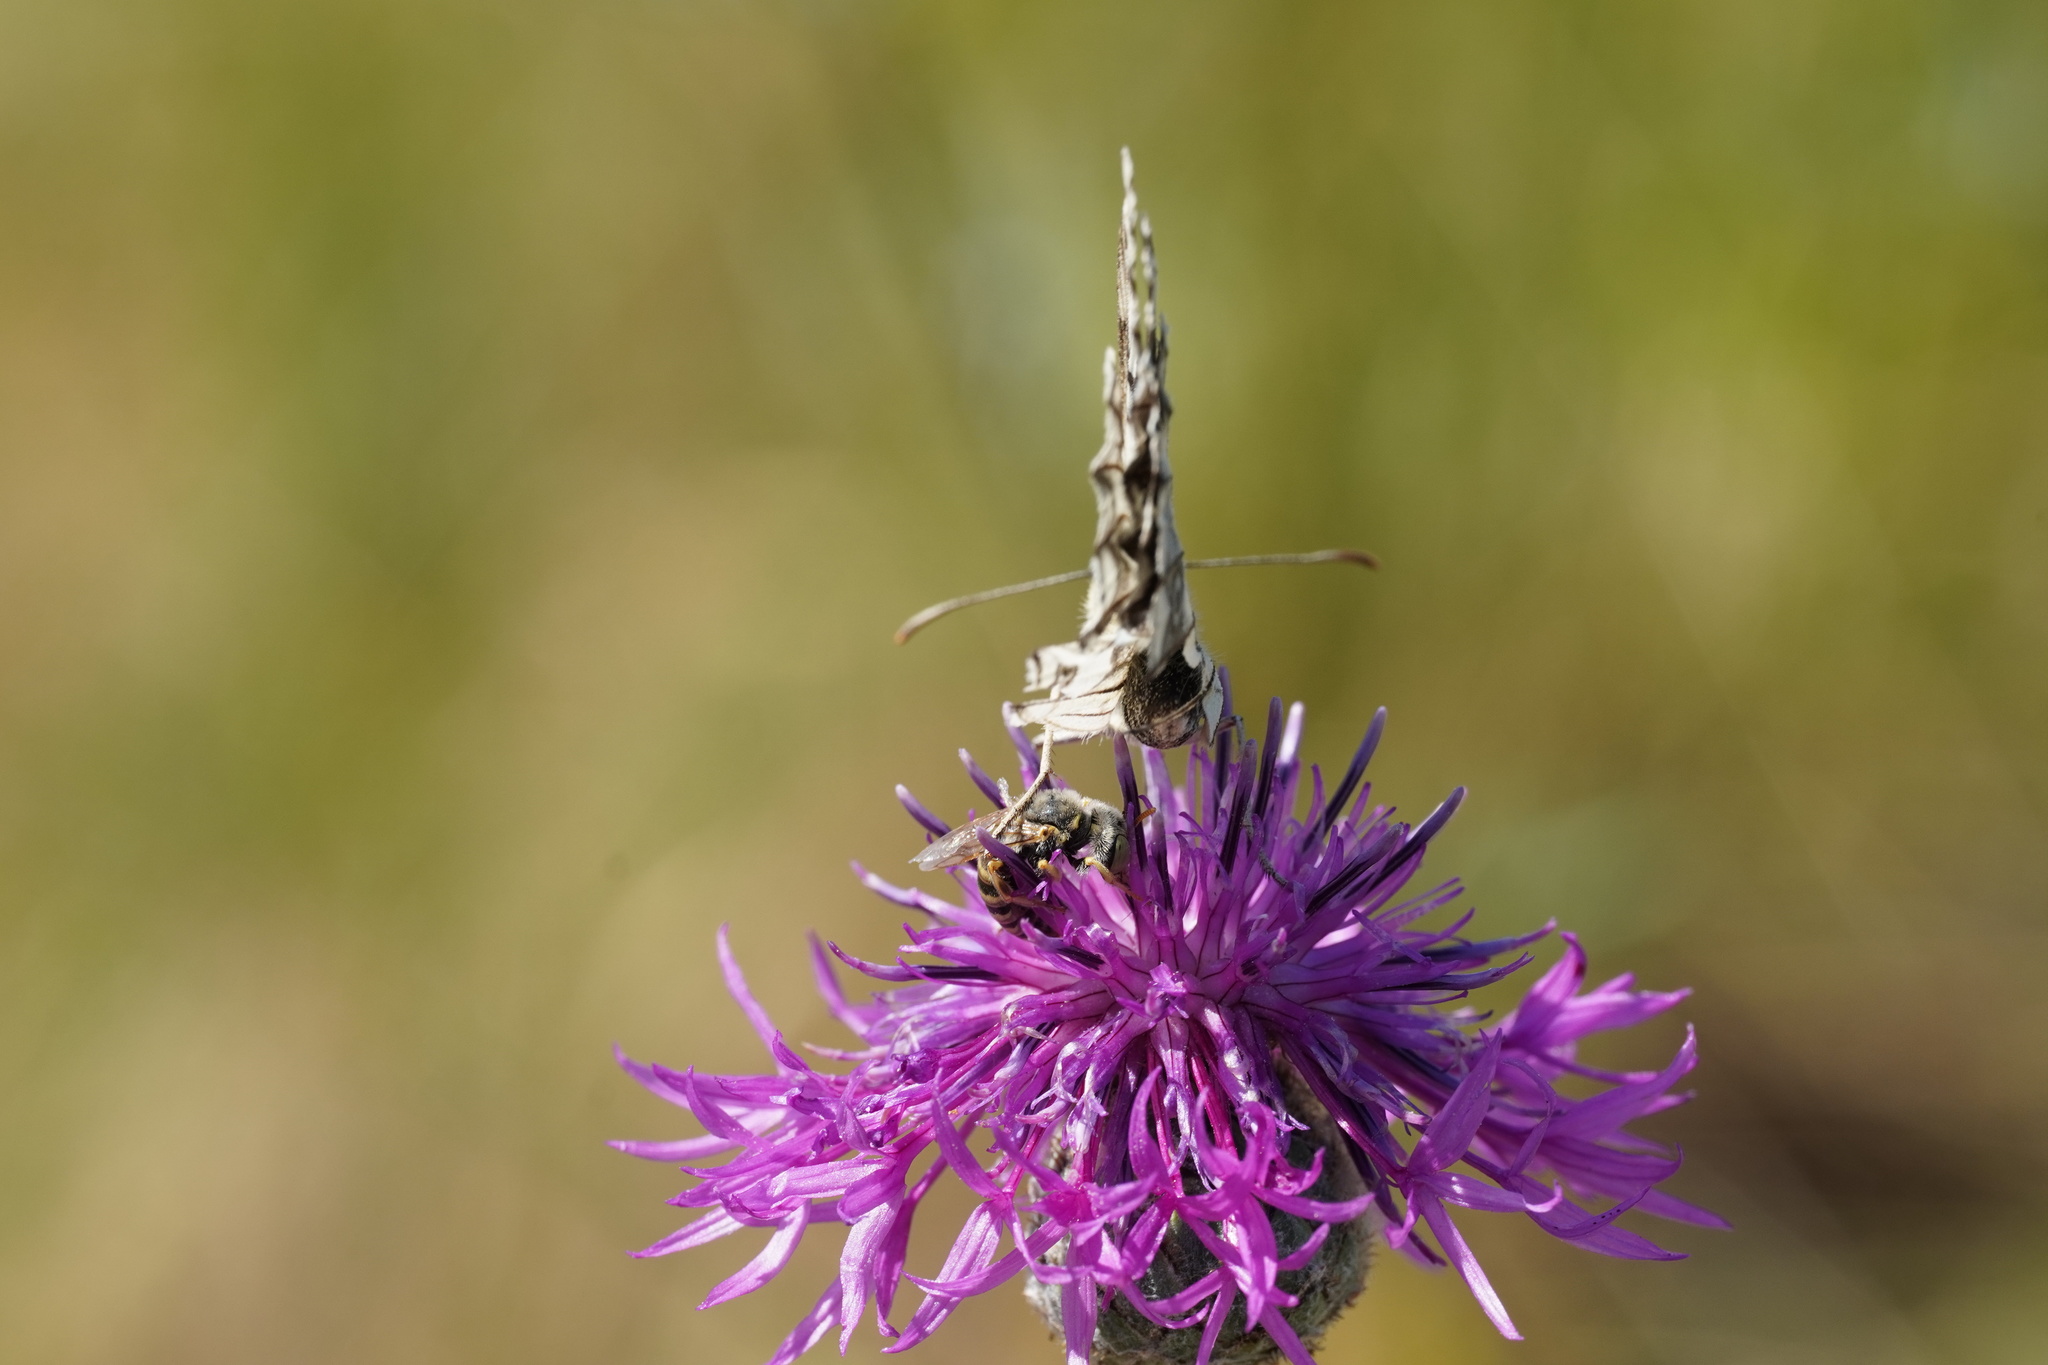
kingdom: Animalia
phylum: Arthropoda
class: Insecta
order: Hymenoptera
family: Andrenidae
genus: Camptopoeum
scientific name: Camptopoeum friesei
